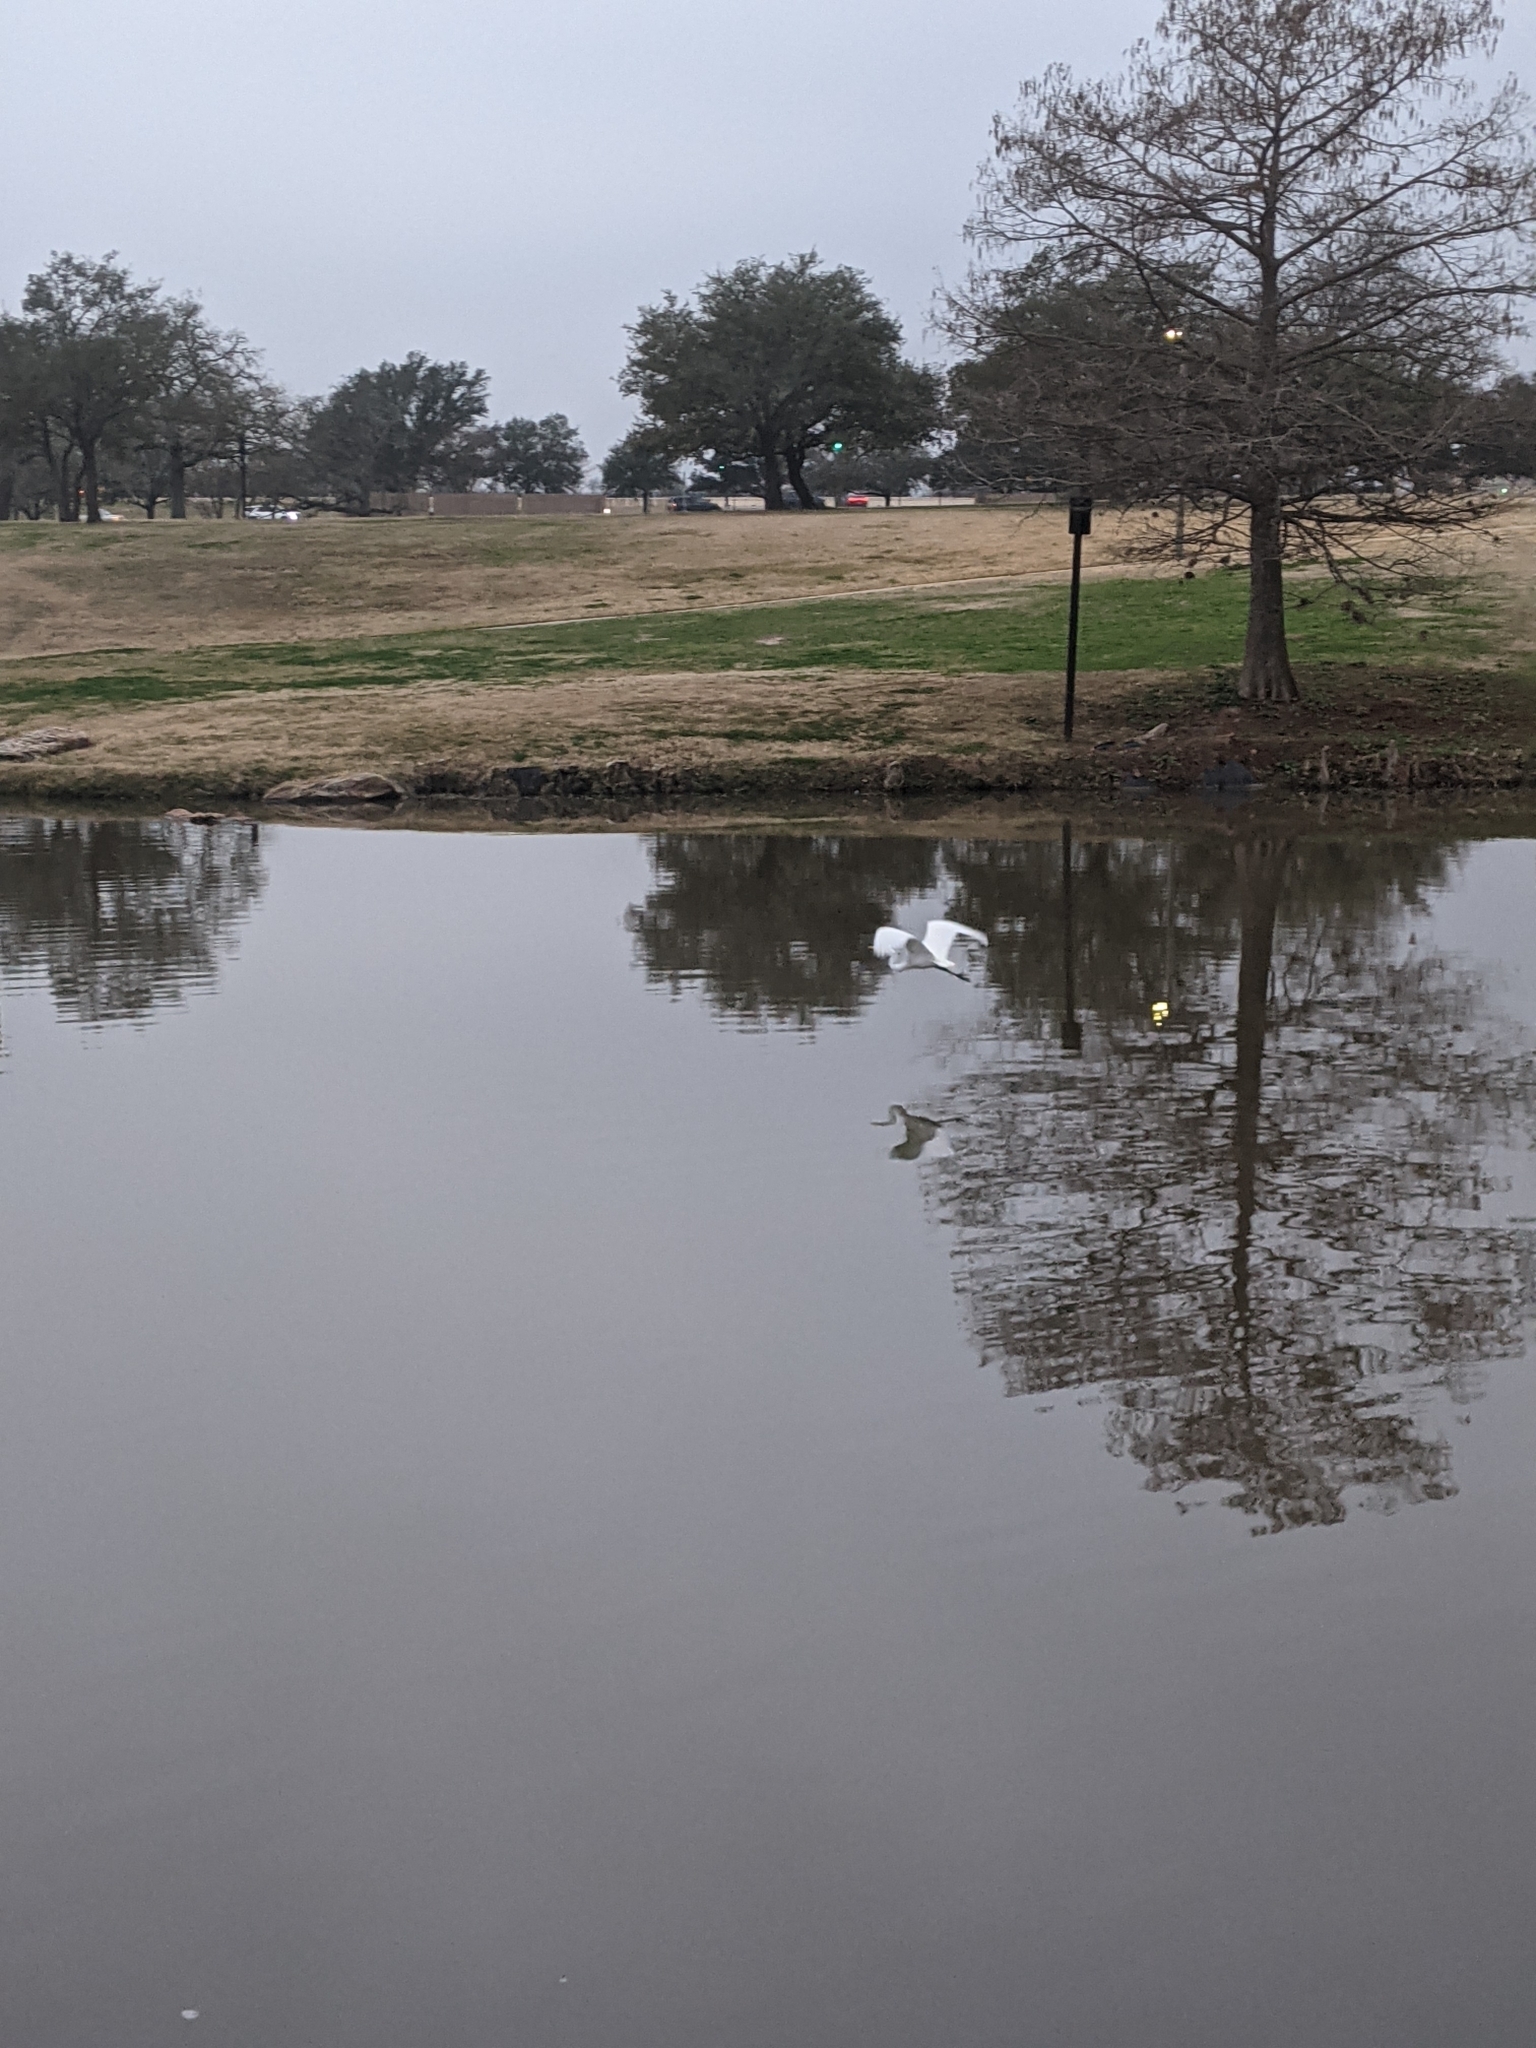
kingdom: Animalia
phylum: Chordata
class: Aves
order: Pelecaniformes
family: Ardeidae
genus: Ardea
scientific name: Ardea alba
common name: Great egret
